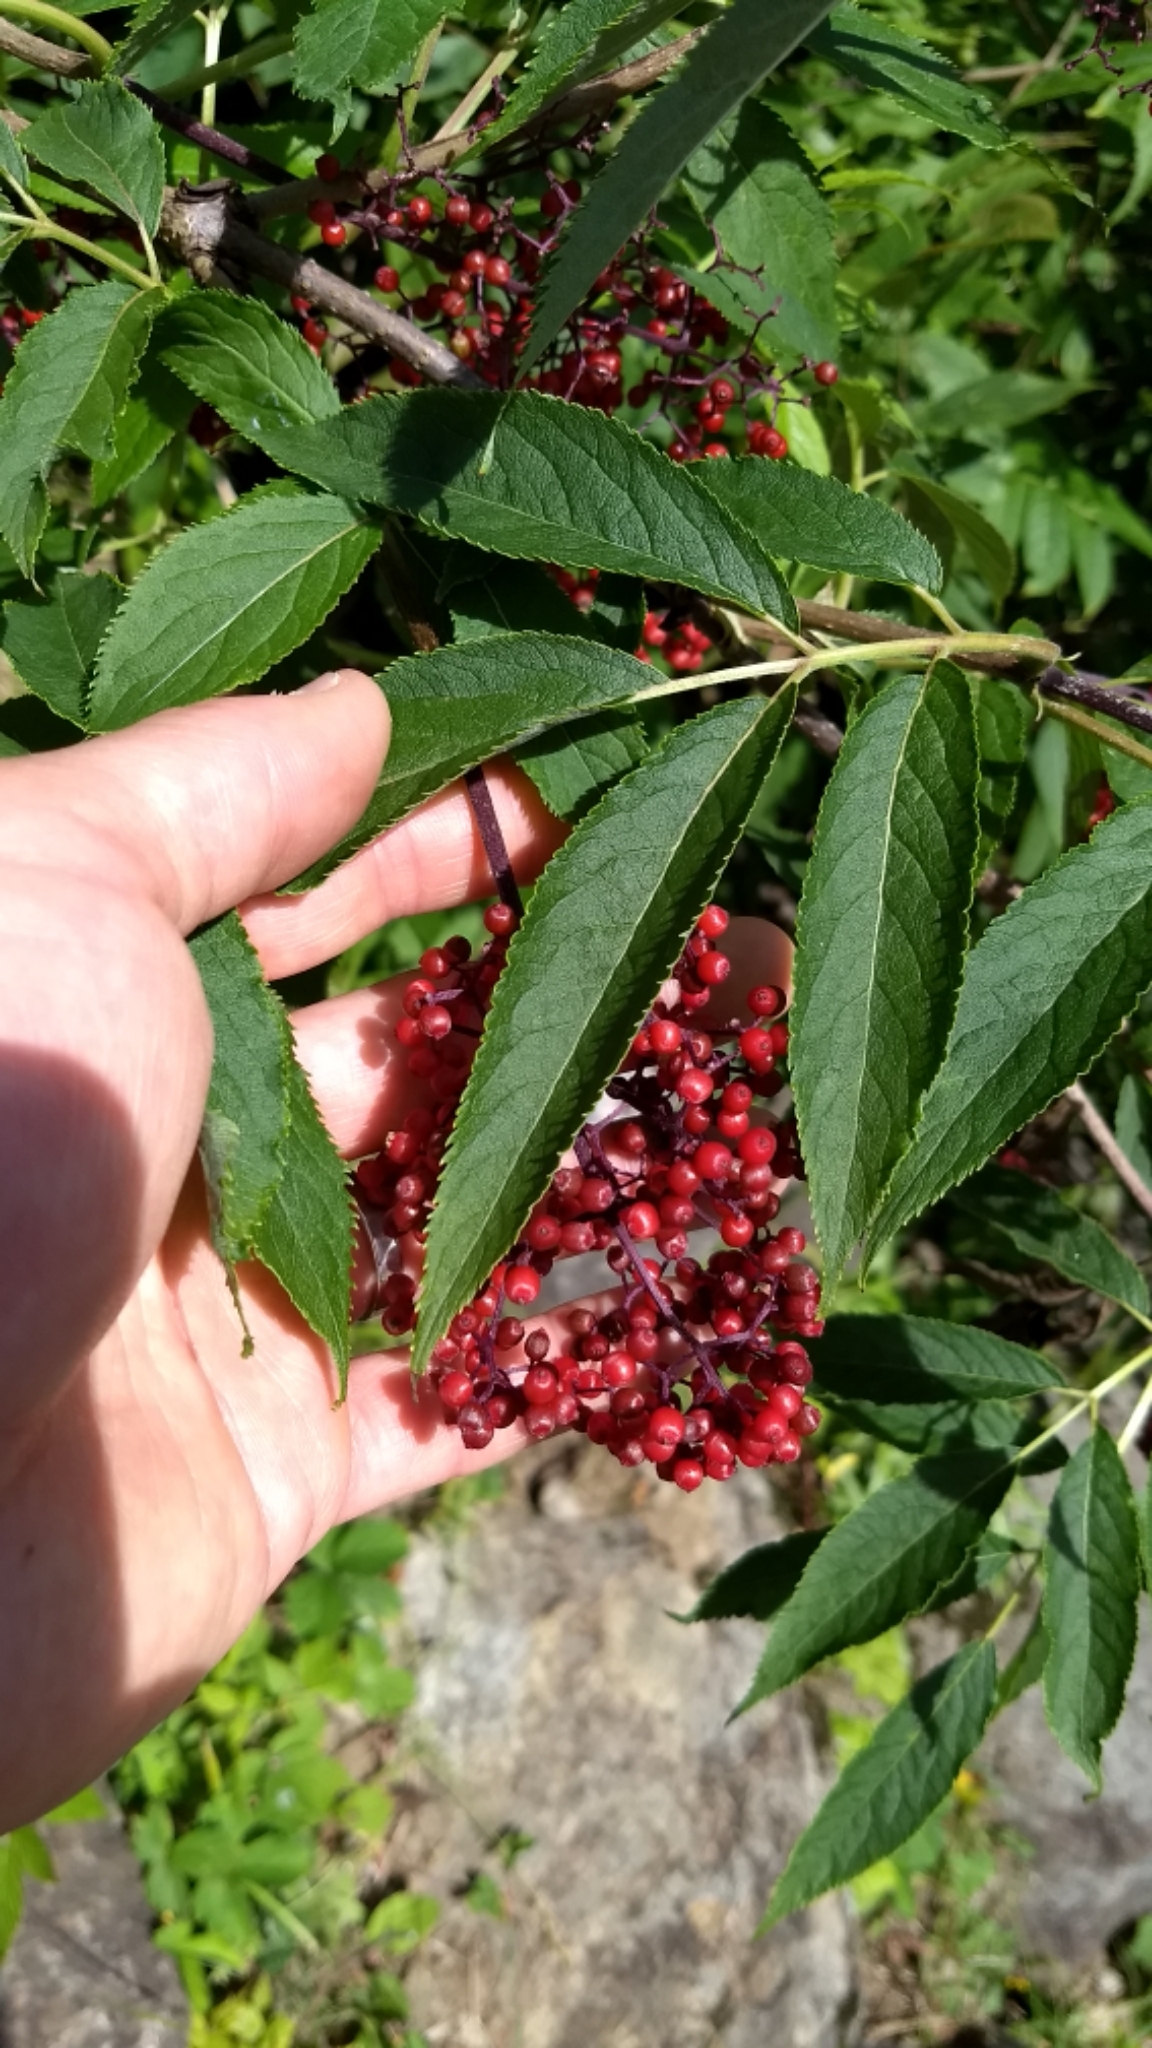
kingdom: Plantae
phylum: Tracheophyta
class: Magnoliopsida
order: Dipsacales
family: Viburnaceae
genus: Sambucus
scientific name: Sambucus racemosa
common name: Red-berried elder
